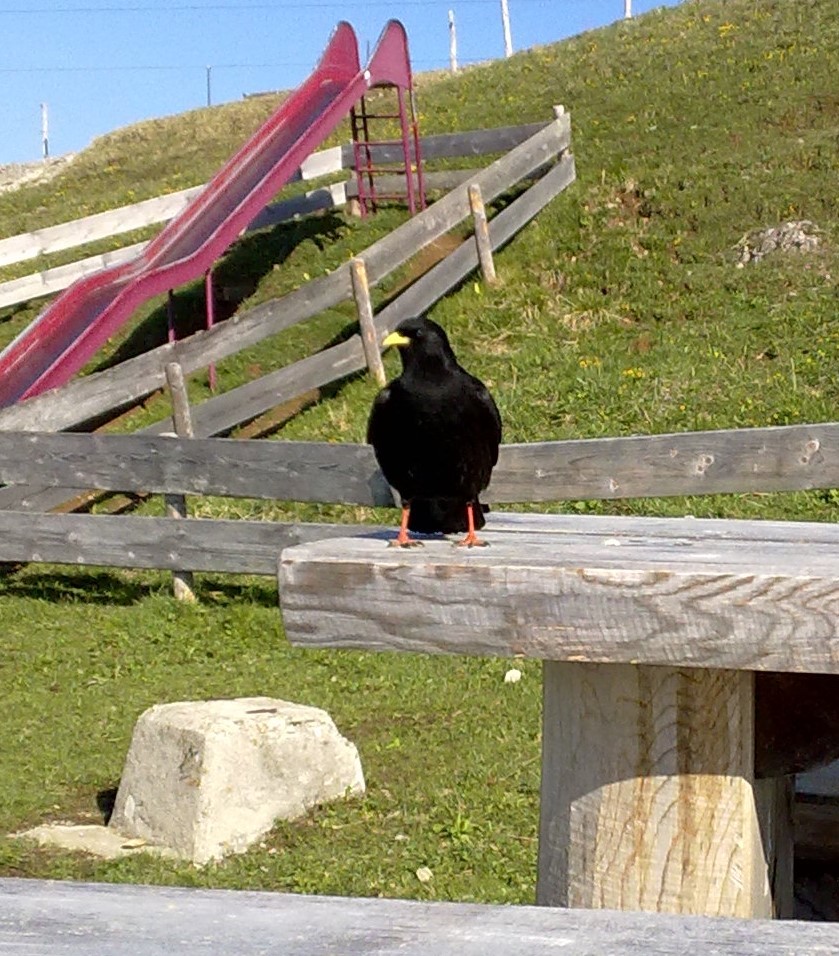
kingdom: Animalia
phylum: Chordata
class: Aves
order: Passeriformes
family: Corvidae
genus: Pyrrhocorax
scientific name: Pyrrhocorax graculus
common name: Alpine chough
